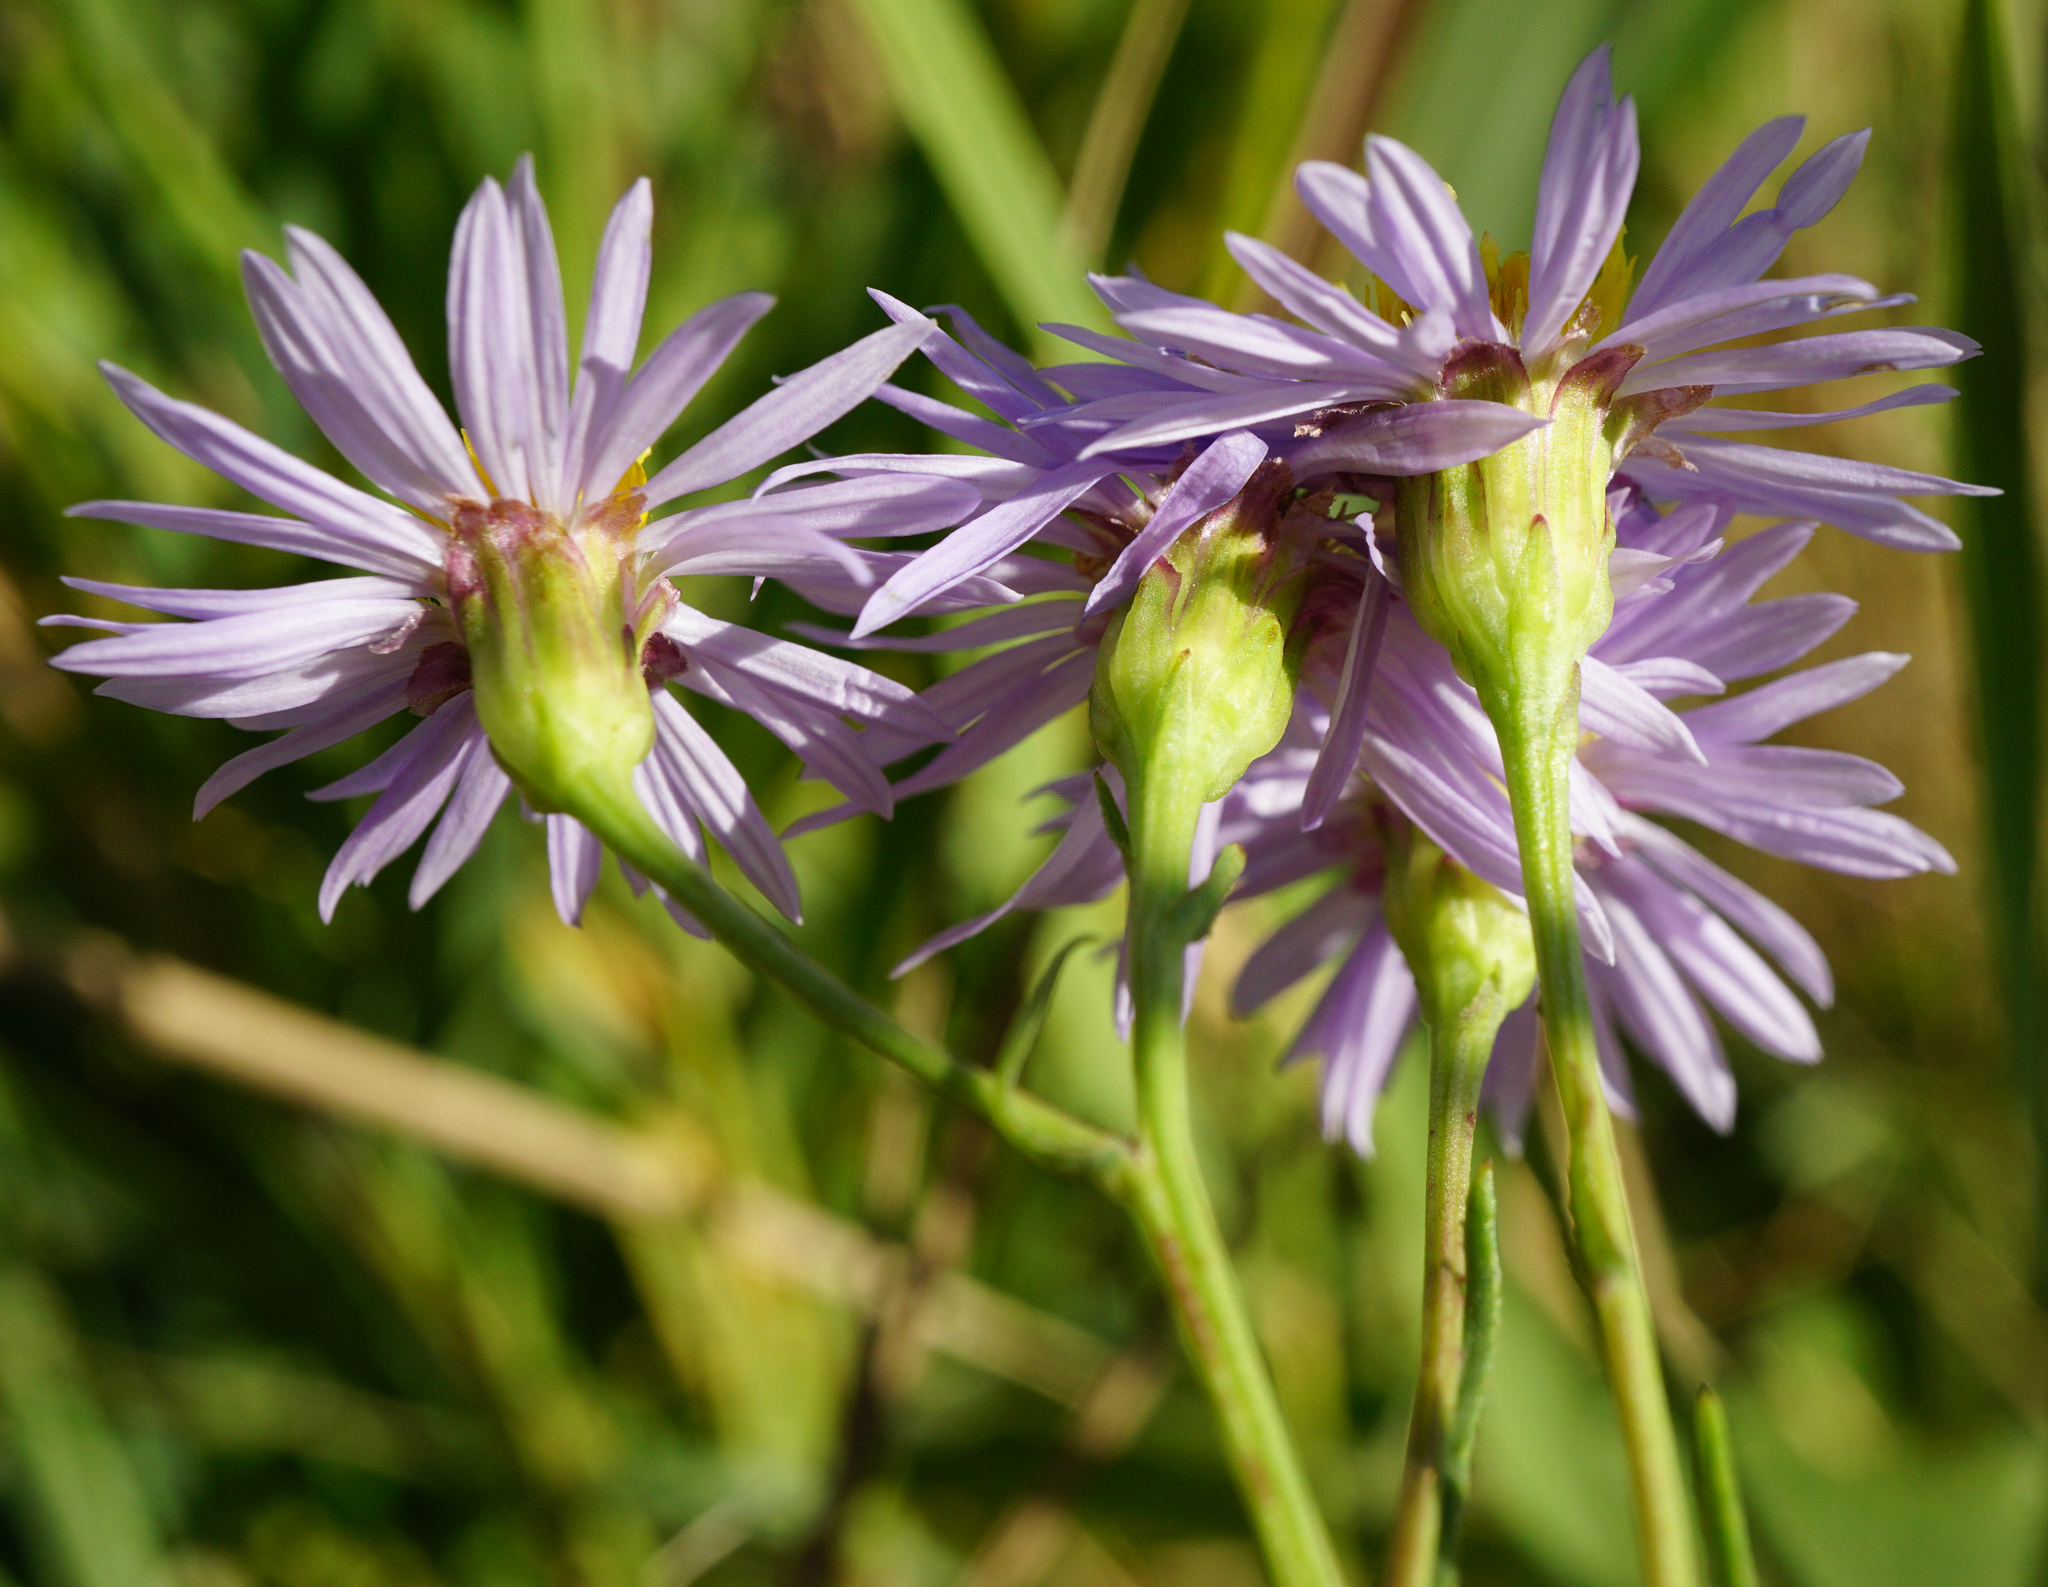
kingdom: Plantae
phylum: Tracheophyta
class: Magnoliopsida
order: Asterales
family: Asteraceae
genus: Tripolium
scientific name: Tripolium pannonicum
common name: Sea aster
